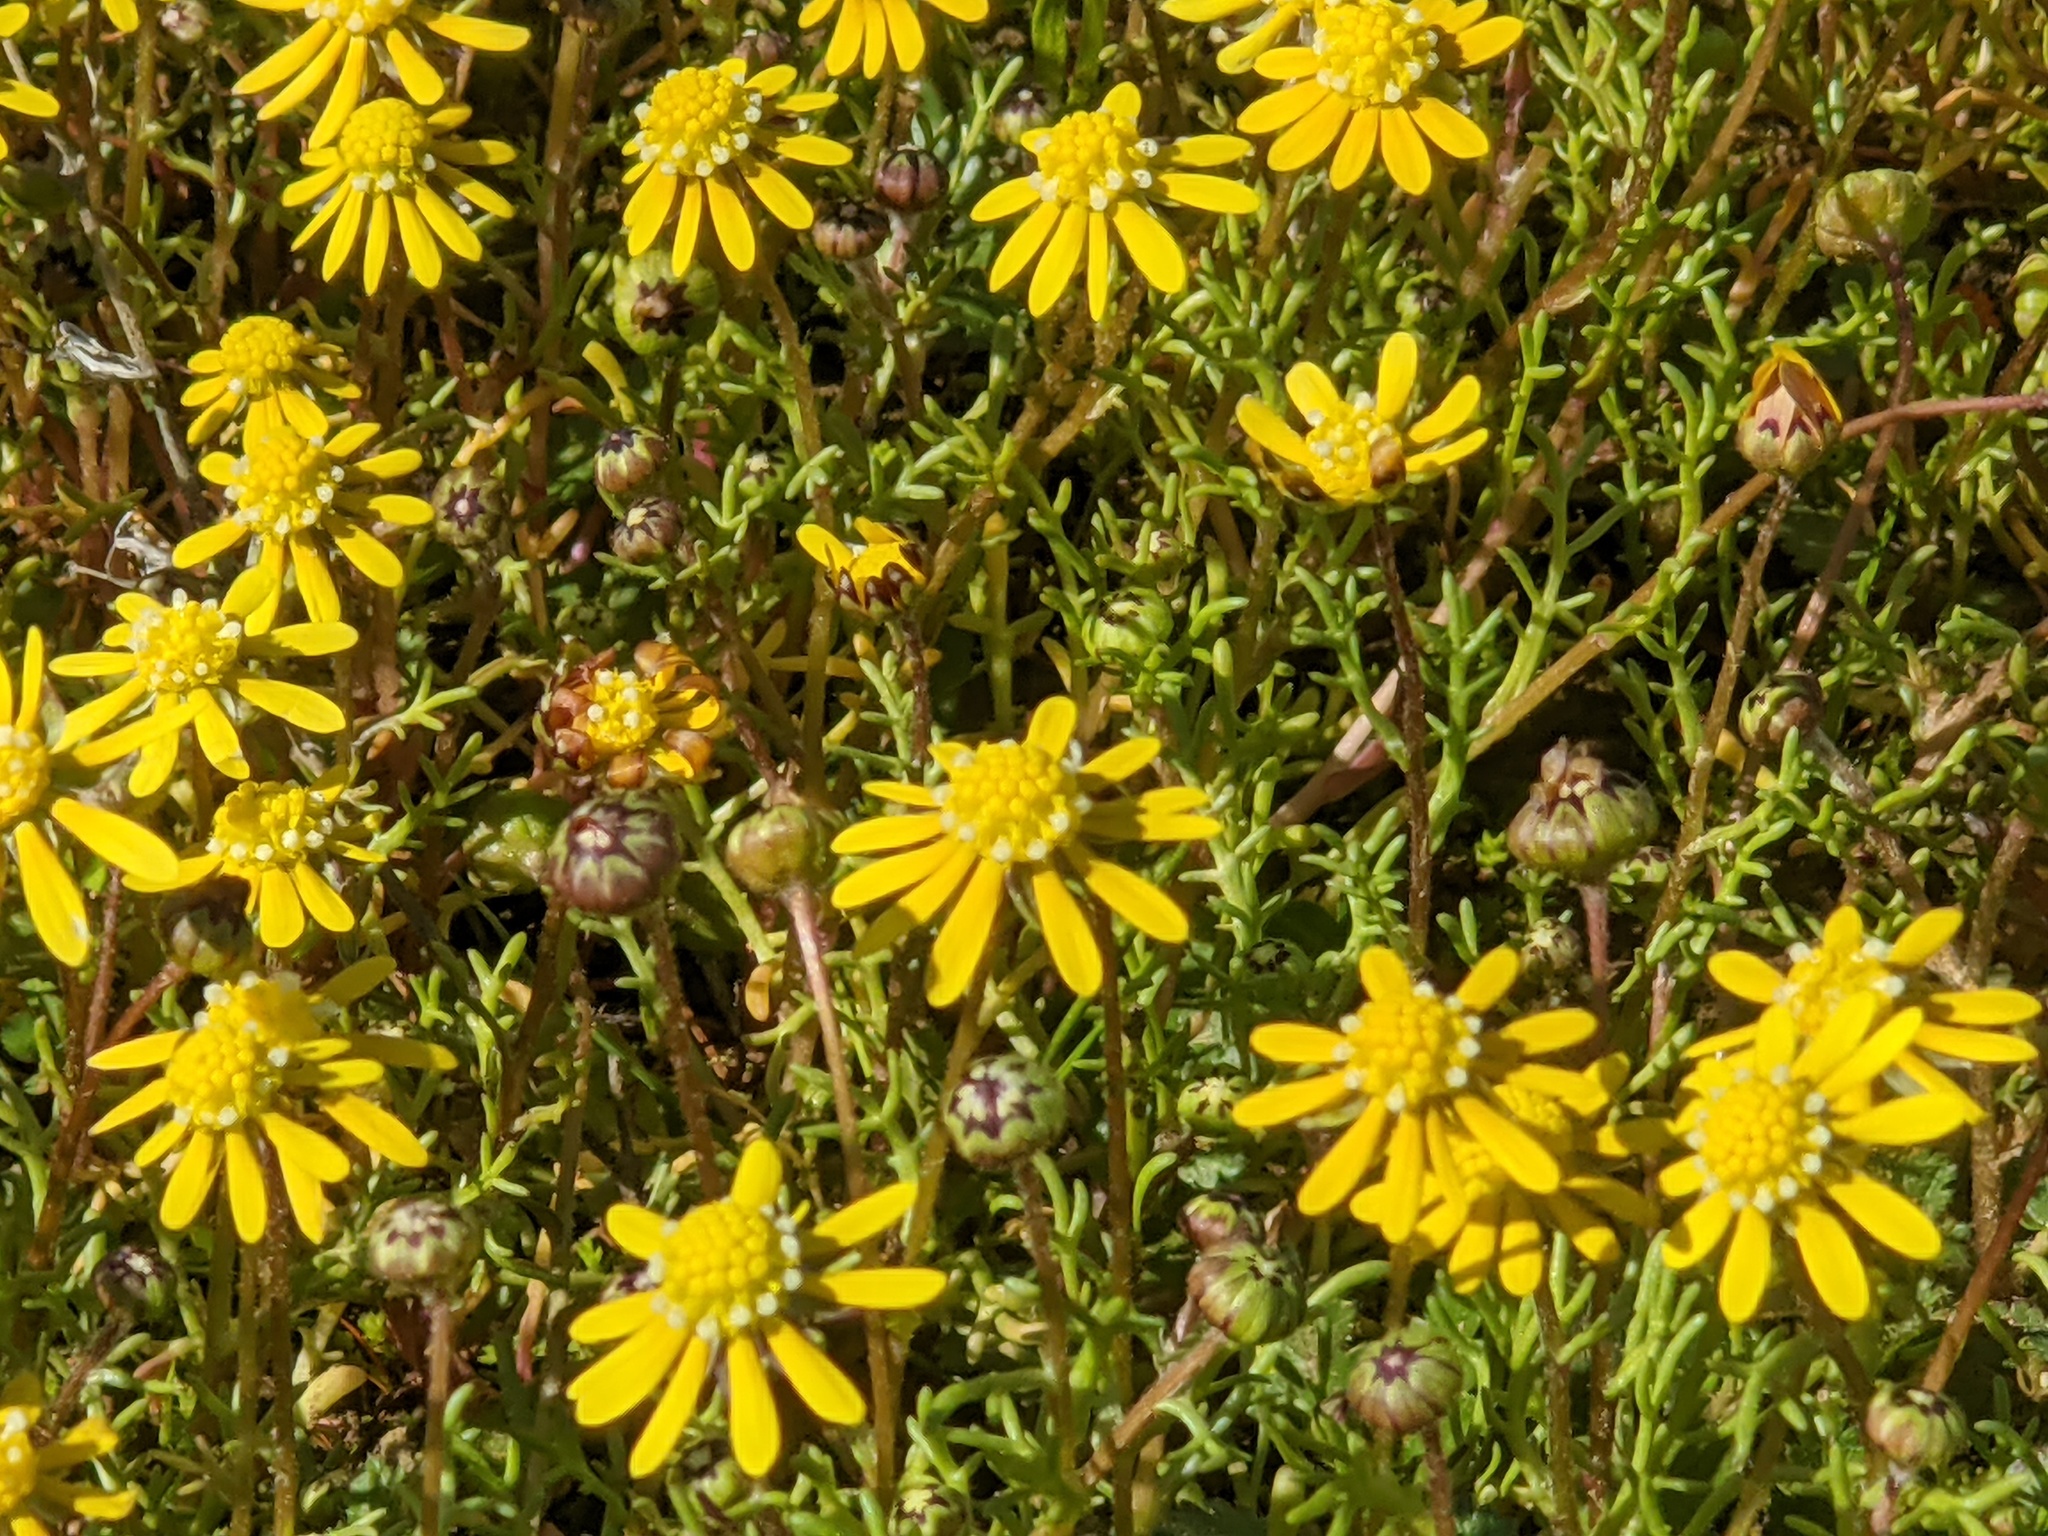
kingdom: Plantae
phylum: Tracheophyta
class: Magnoliopsida
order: Asterales
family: Asteraceae
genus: Blennosperma
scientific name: Blennosperma nanum
